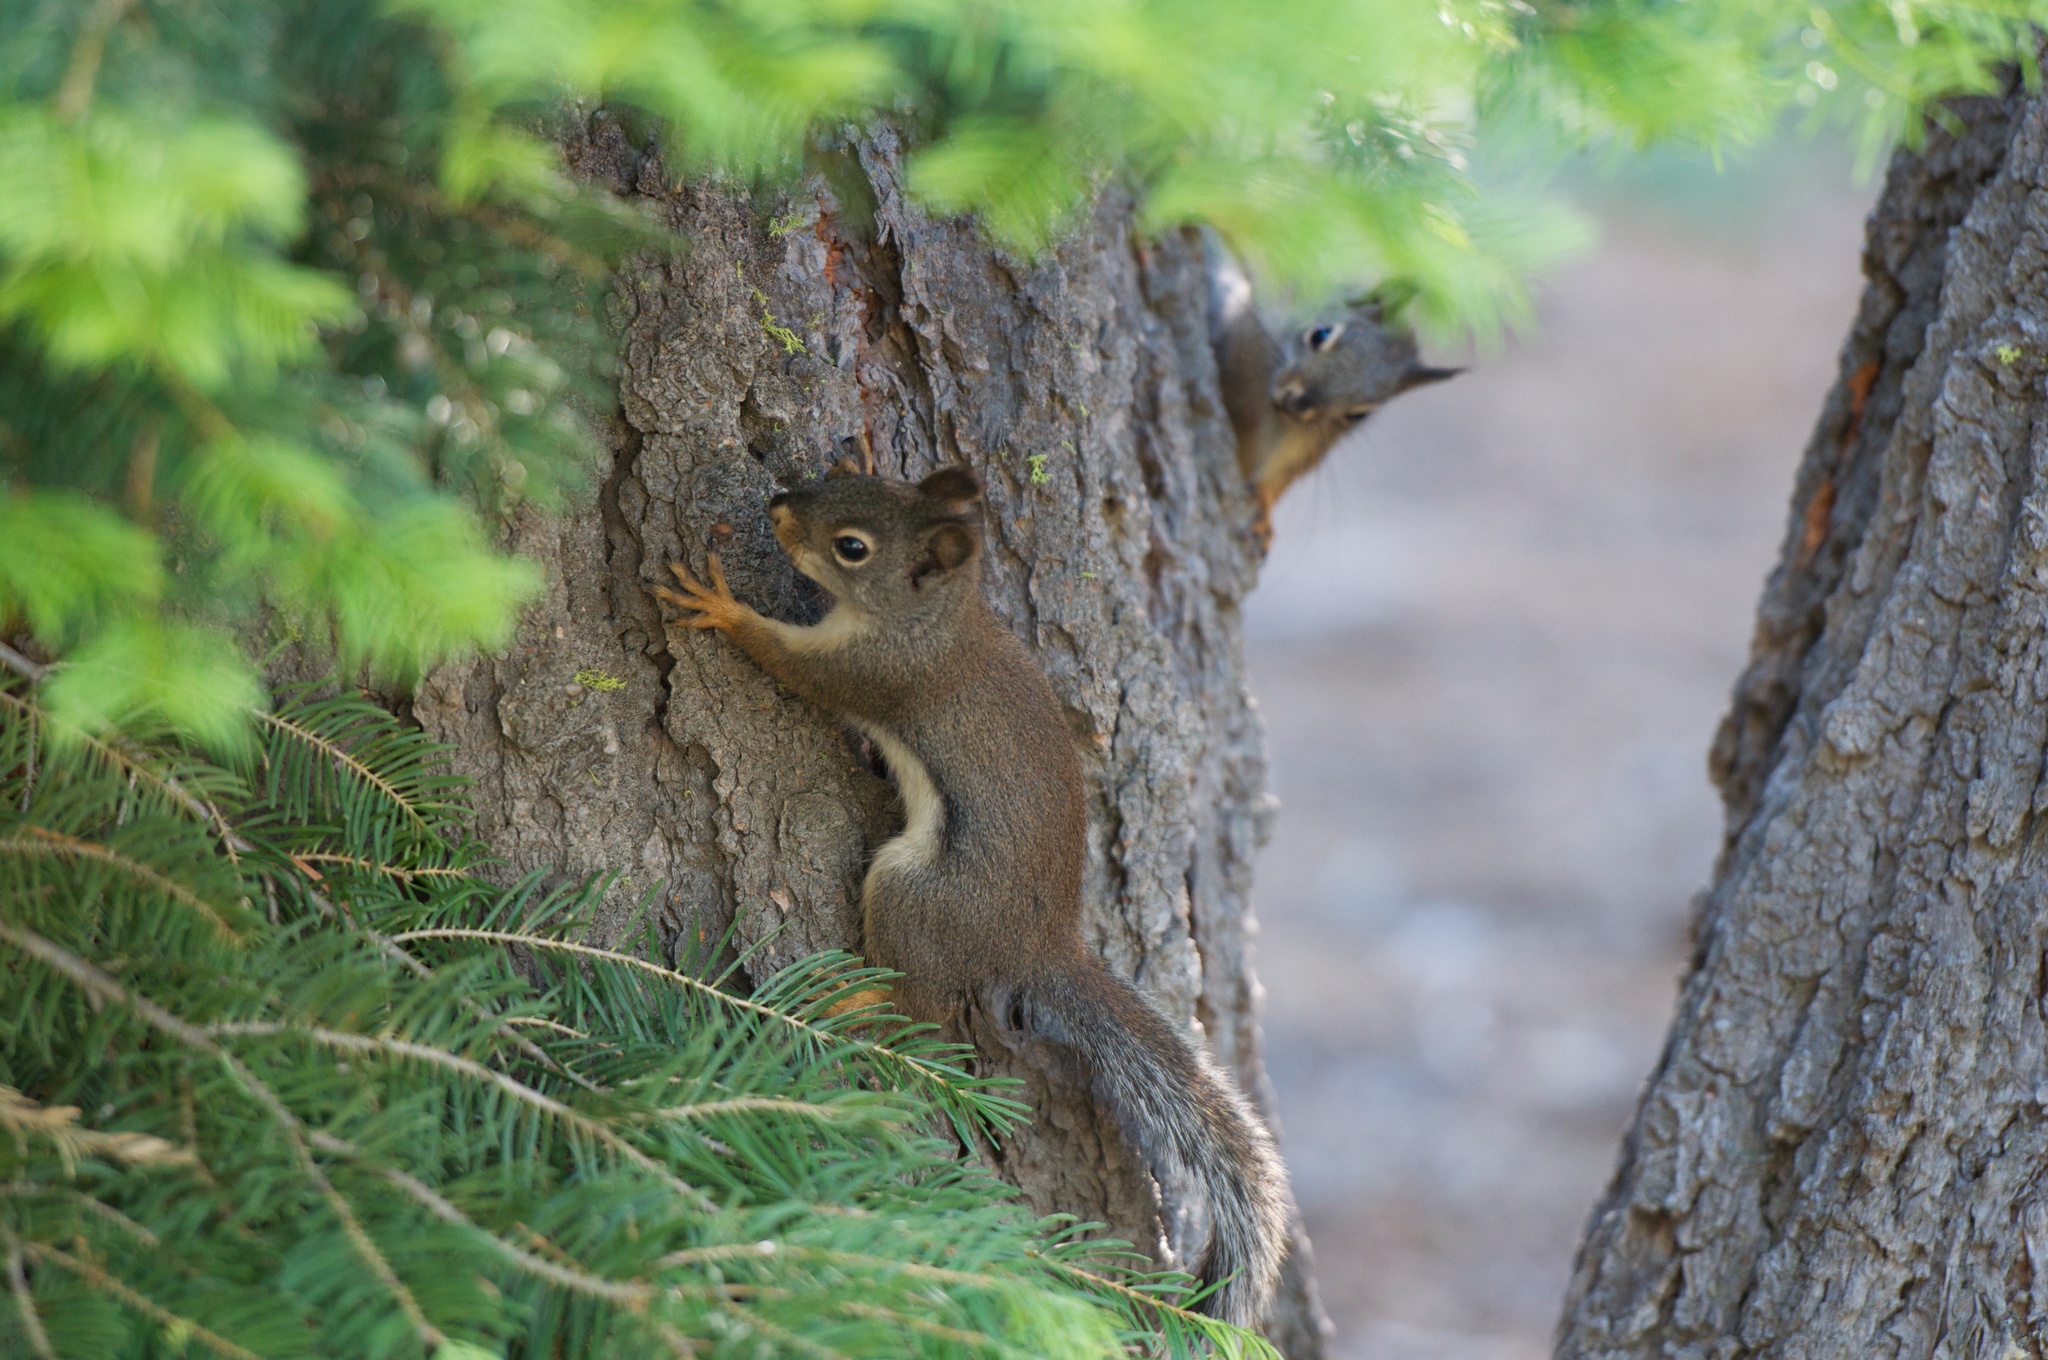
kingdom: Animalia
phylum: Chordata
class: Mammalia
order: Rodentia
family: Sciuridae
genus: Tamiasciurus
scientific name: Tamiasciurus douglasii
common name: Douglas's squirrel
